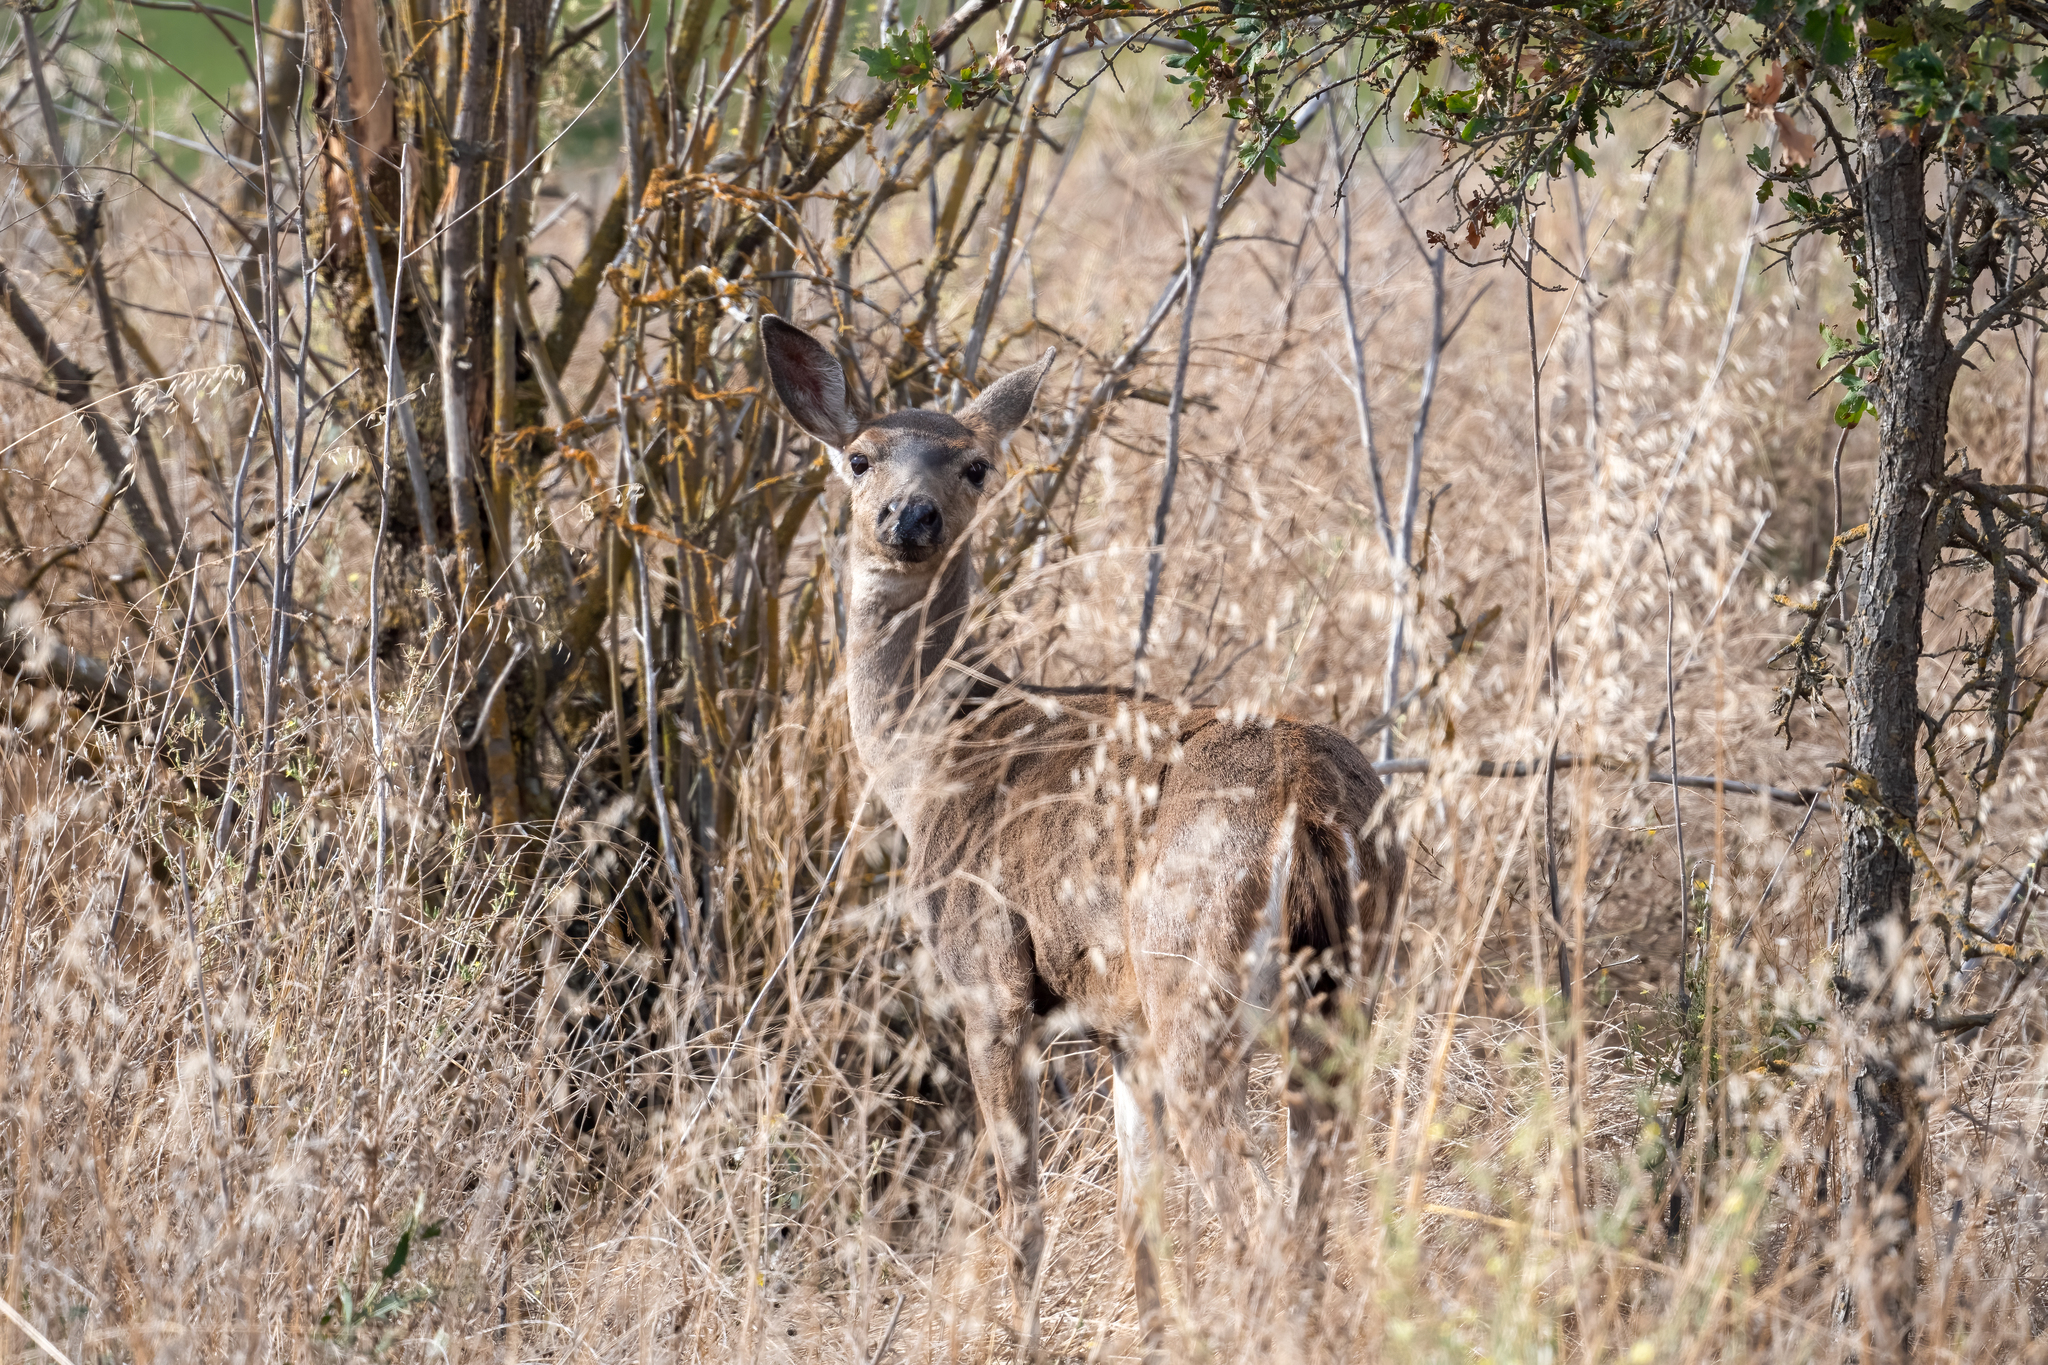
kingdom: Animalia
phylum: Chordata
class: Mammalia
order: Artiodactyla
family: Cervidae
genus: Odocoileus
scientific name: Odocoileus hemionus
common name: Mule deer
